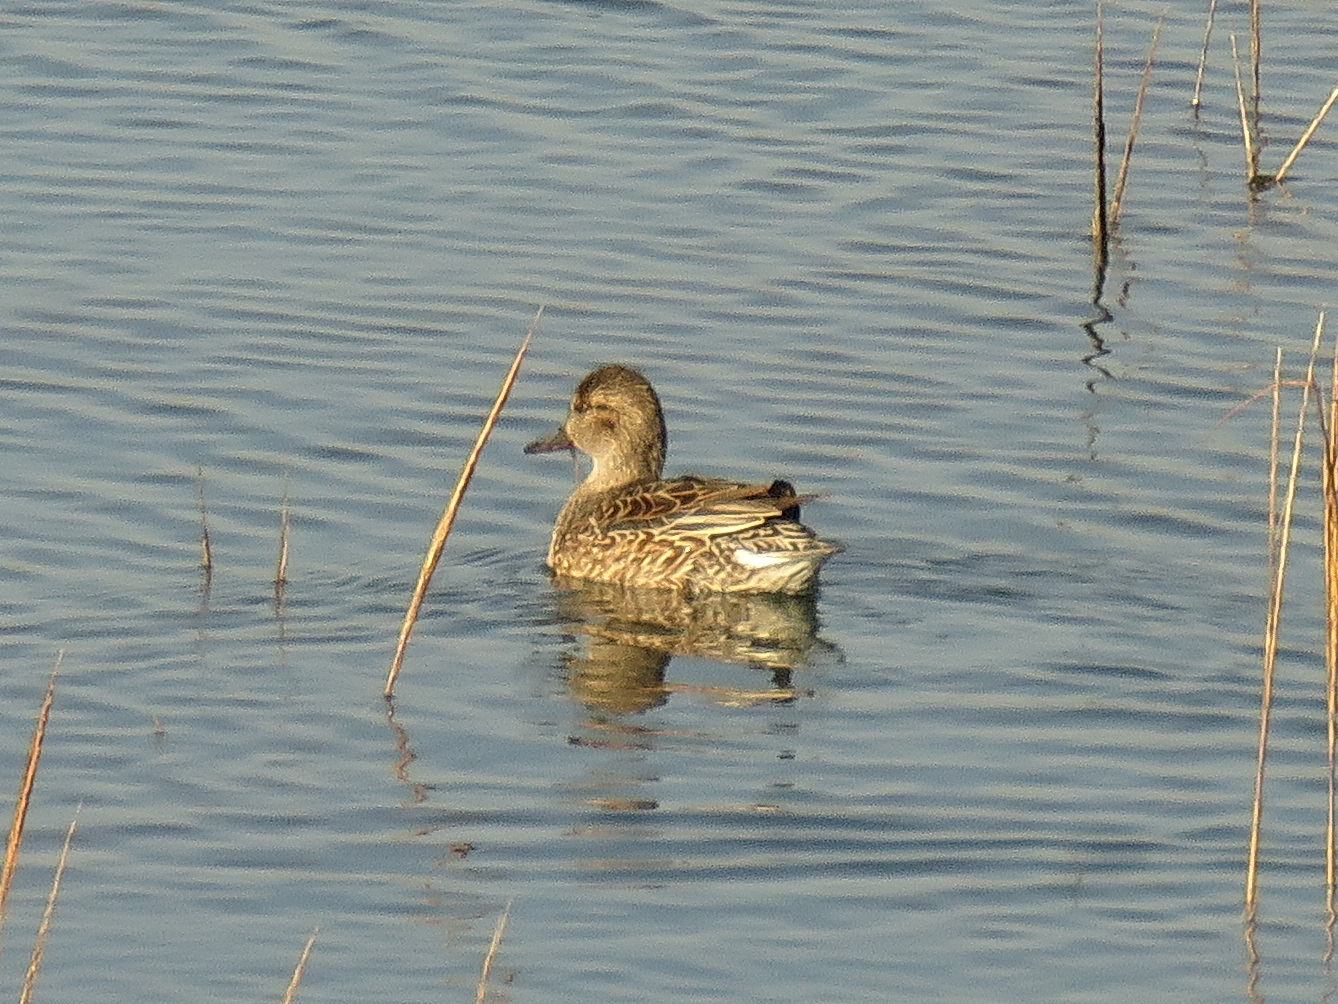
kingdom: Animalia
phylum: Chordata
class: Aves
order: Anseriformes
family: Anatidae
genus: Anas
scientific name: Anas crecca
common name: Eurasian teal
